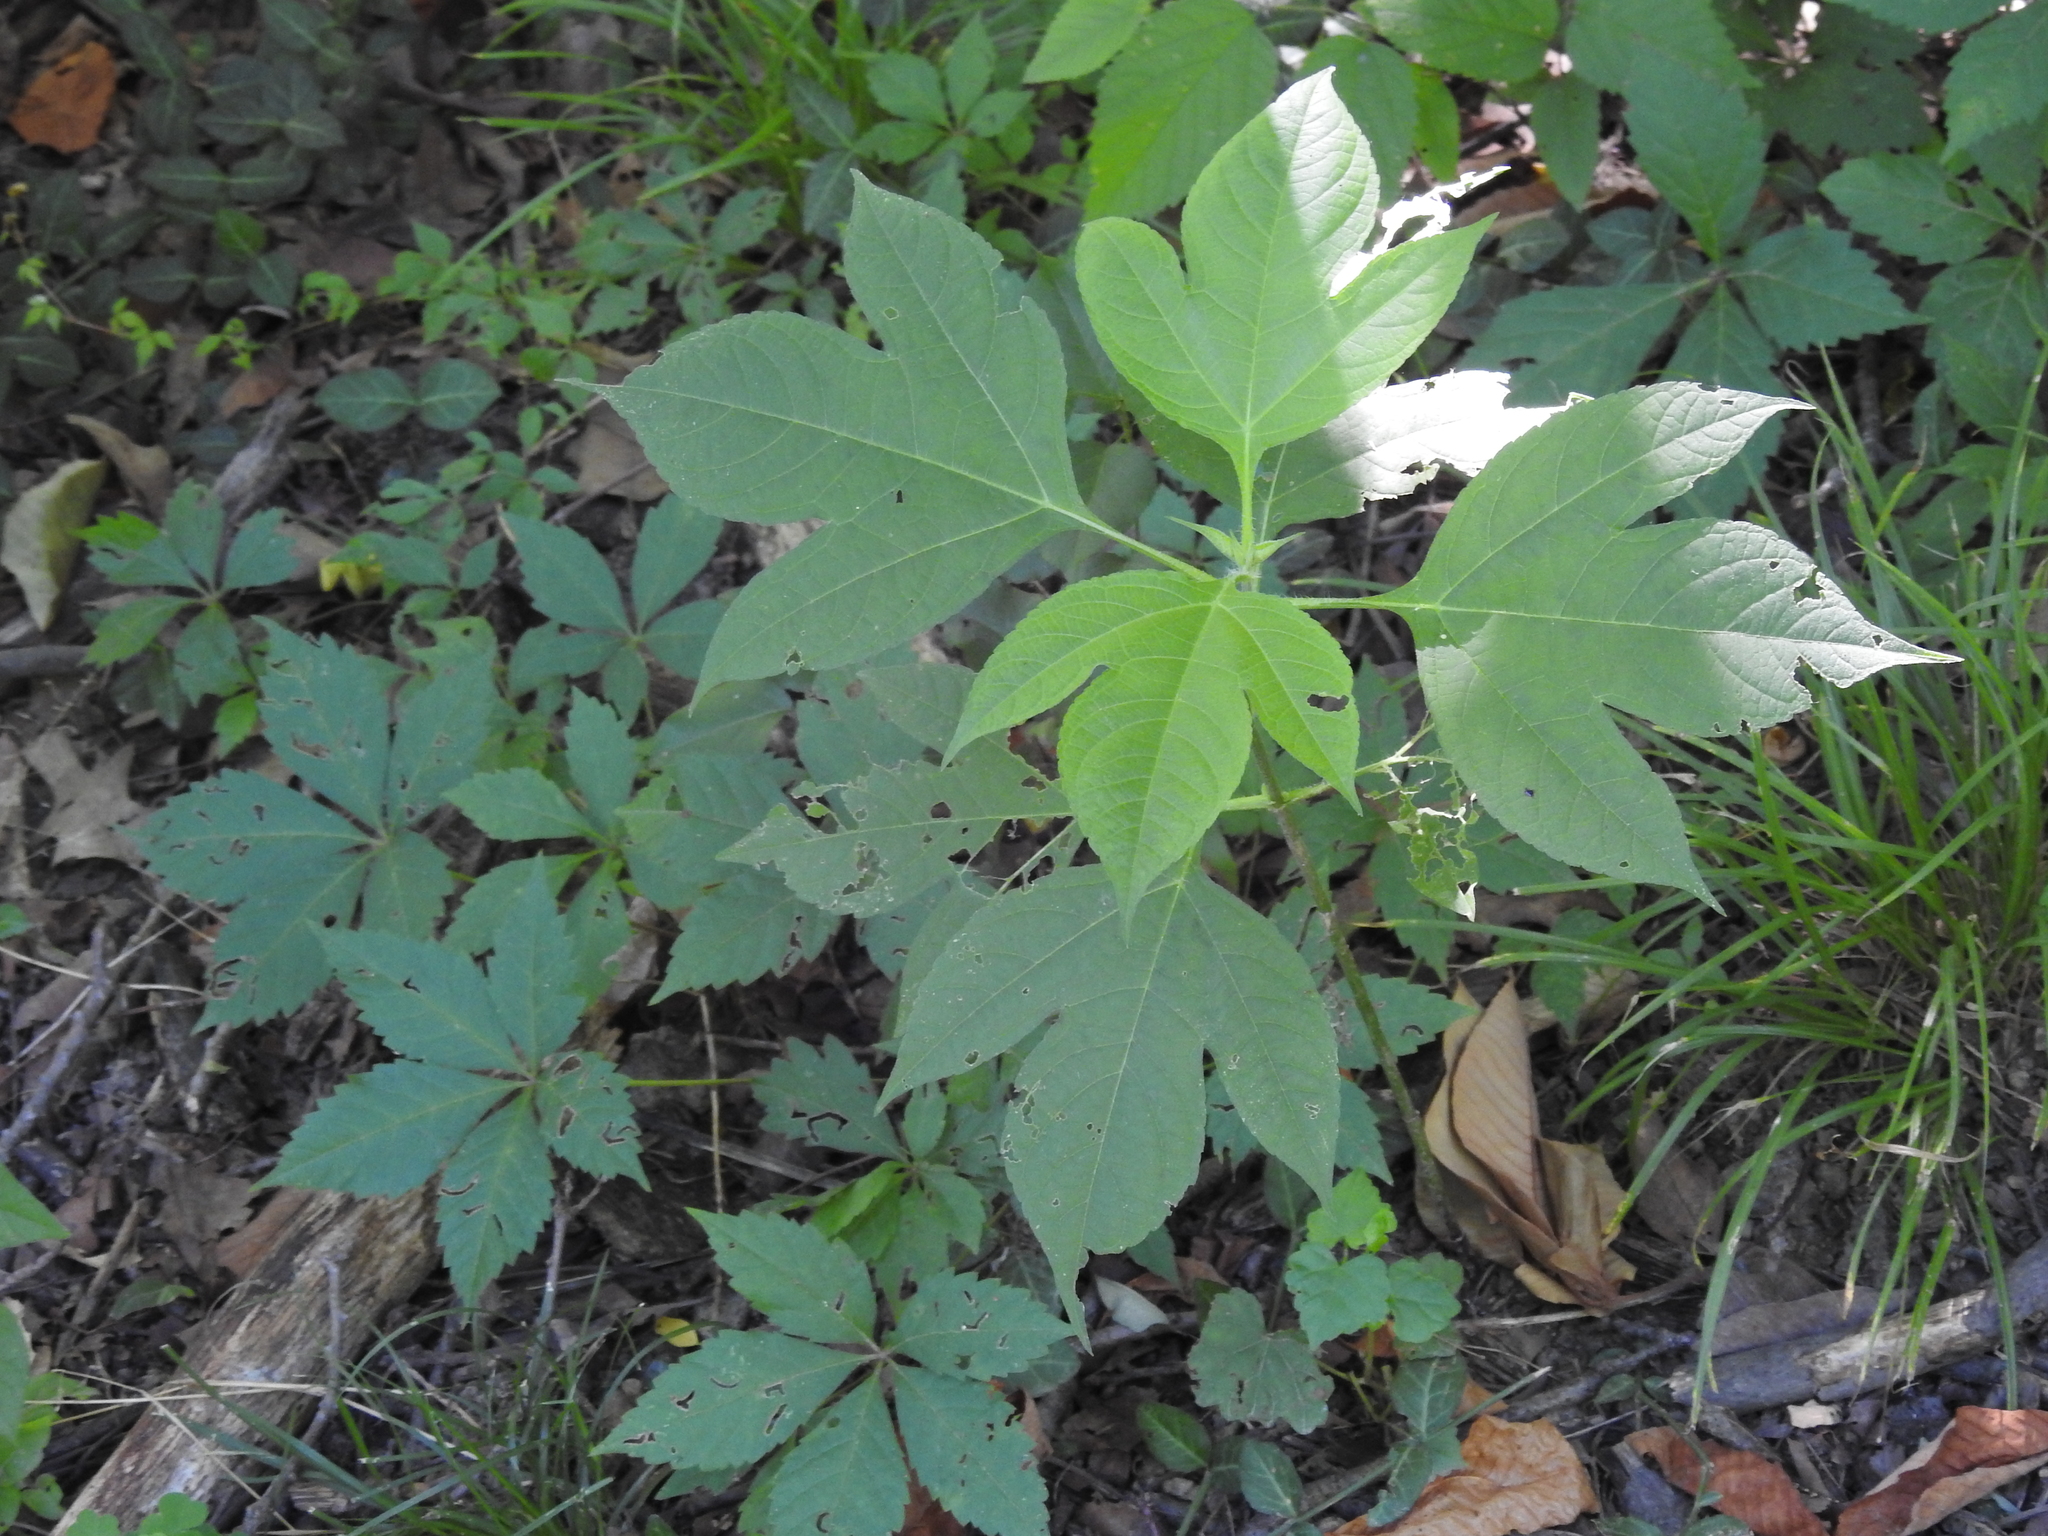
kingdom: Plantae
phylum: Tracheophyta
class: Magnoliopsida
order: Asterales
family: Asteraceae
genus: Ambrosia
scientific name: Ambrosia trifida
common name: Giant ragweed
